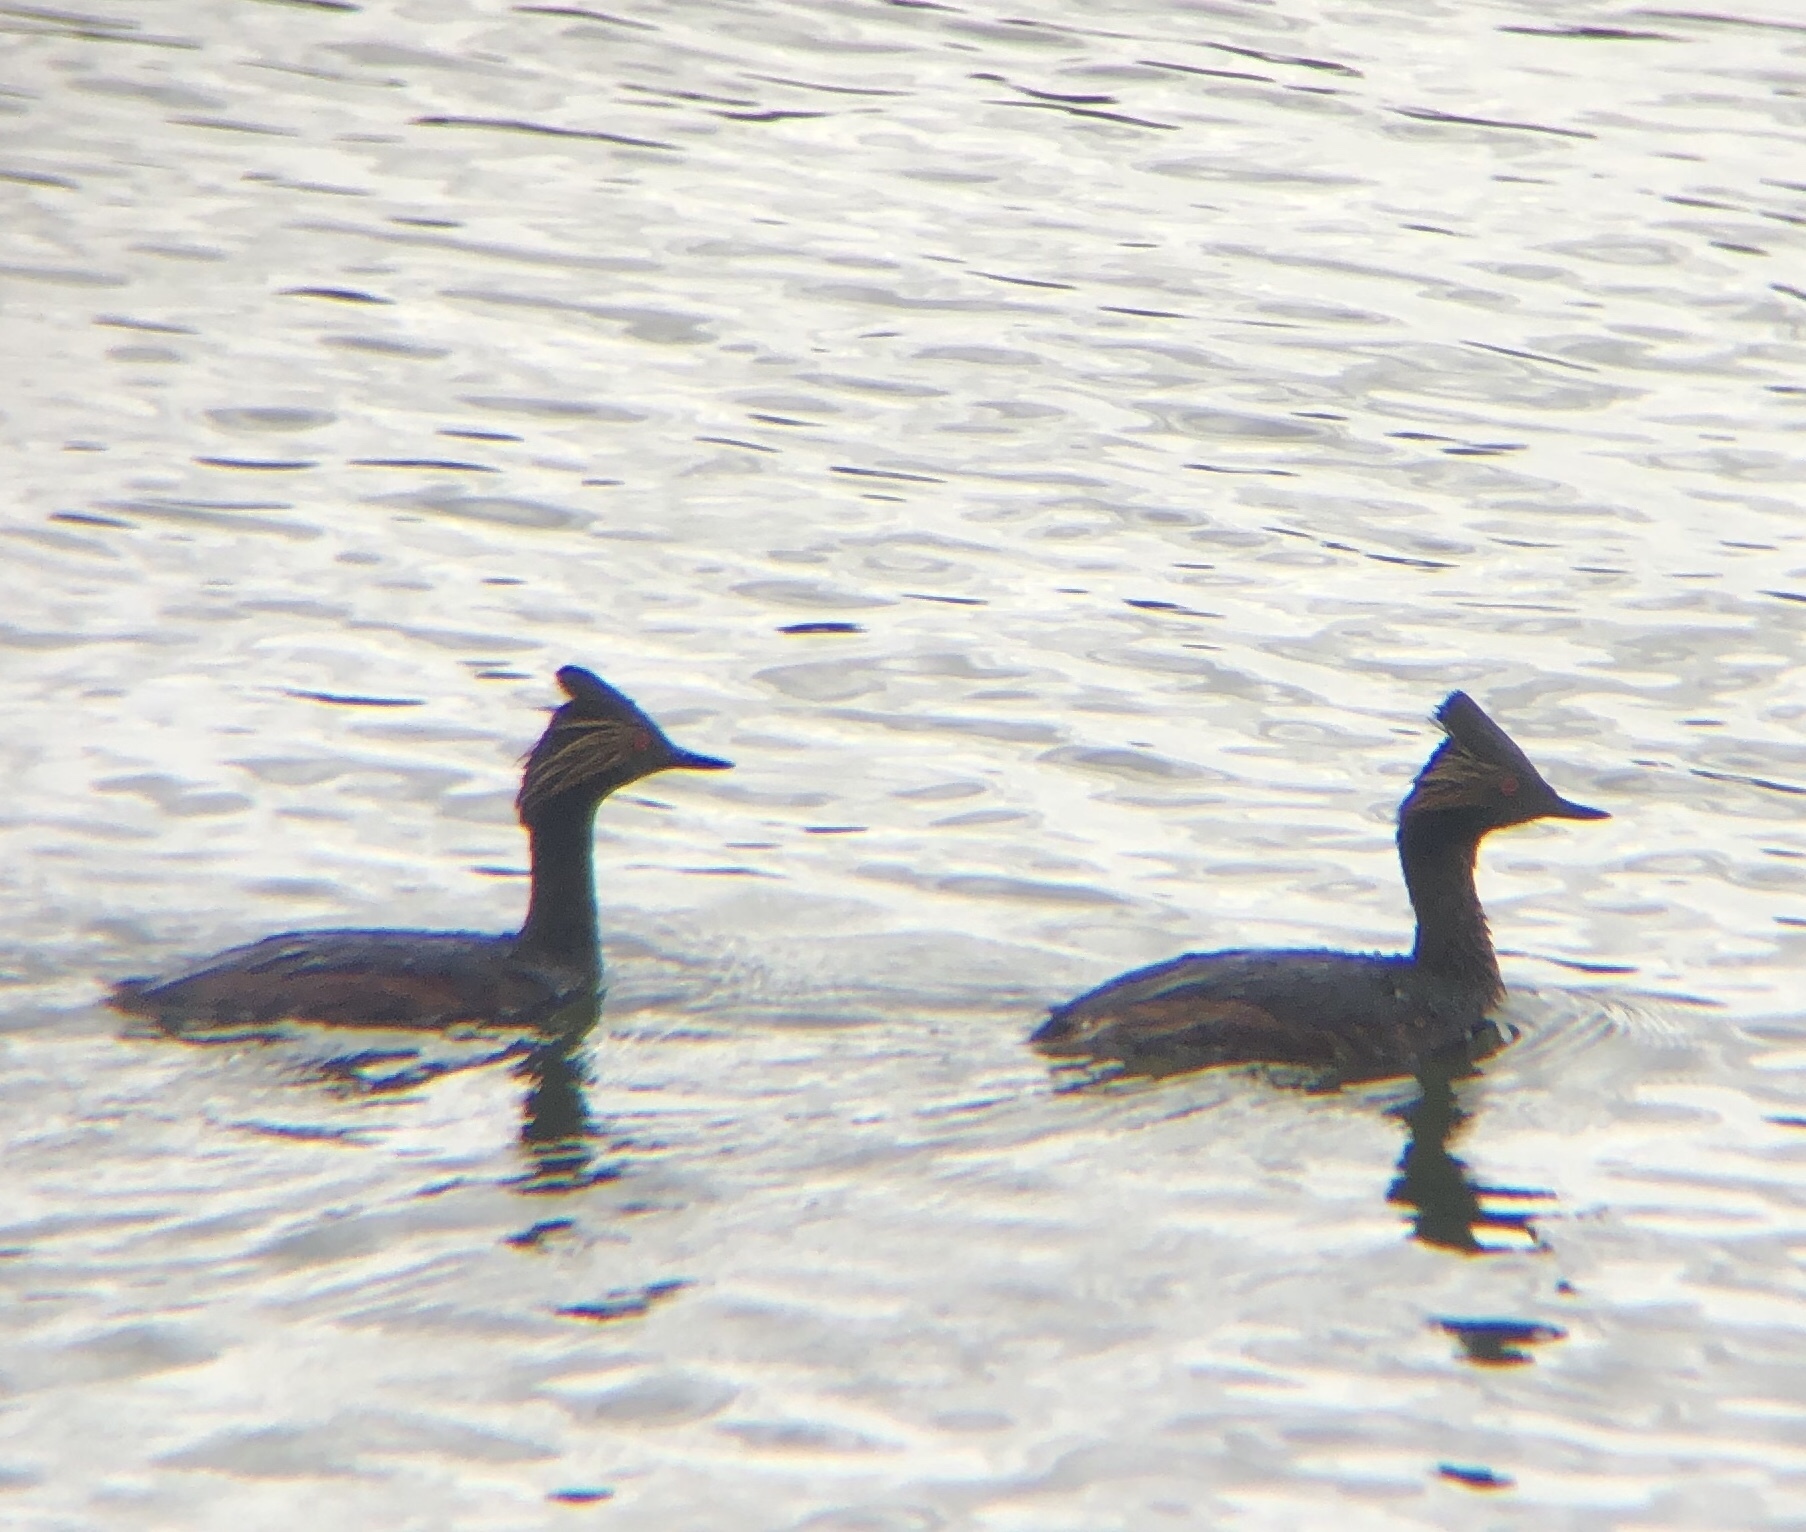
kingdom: Animalia
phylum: Chordata
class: Aves
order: Podicipediformes
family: Podicipedidae
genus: Podiceps
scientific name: Podiceps nigricollis
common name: Black-necked grebe
